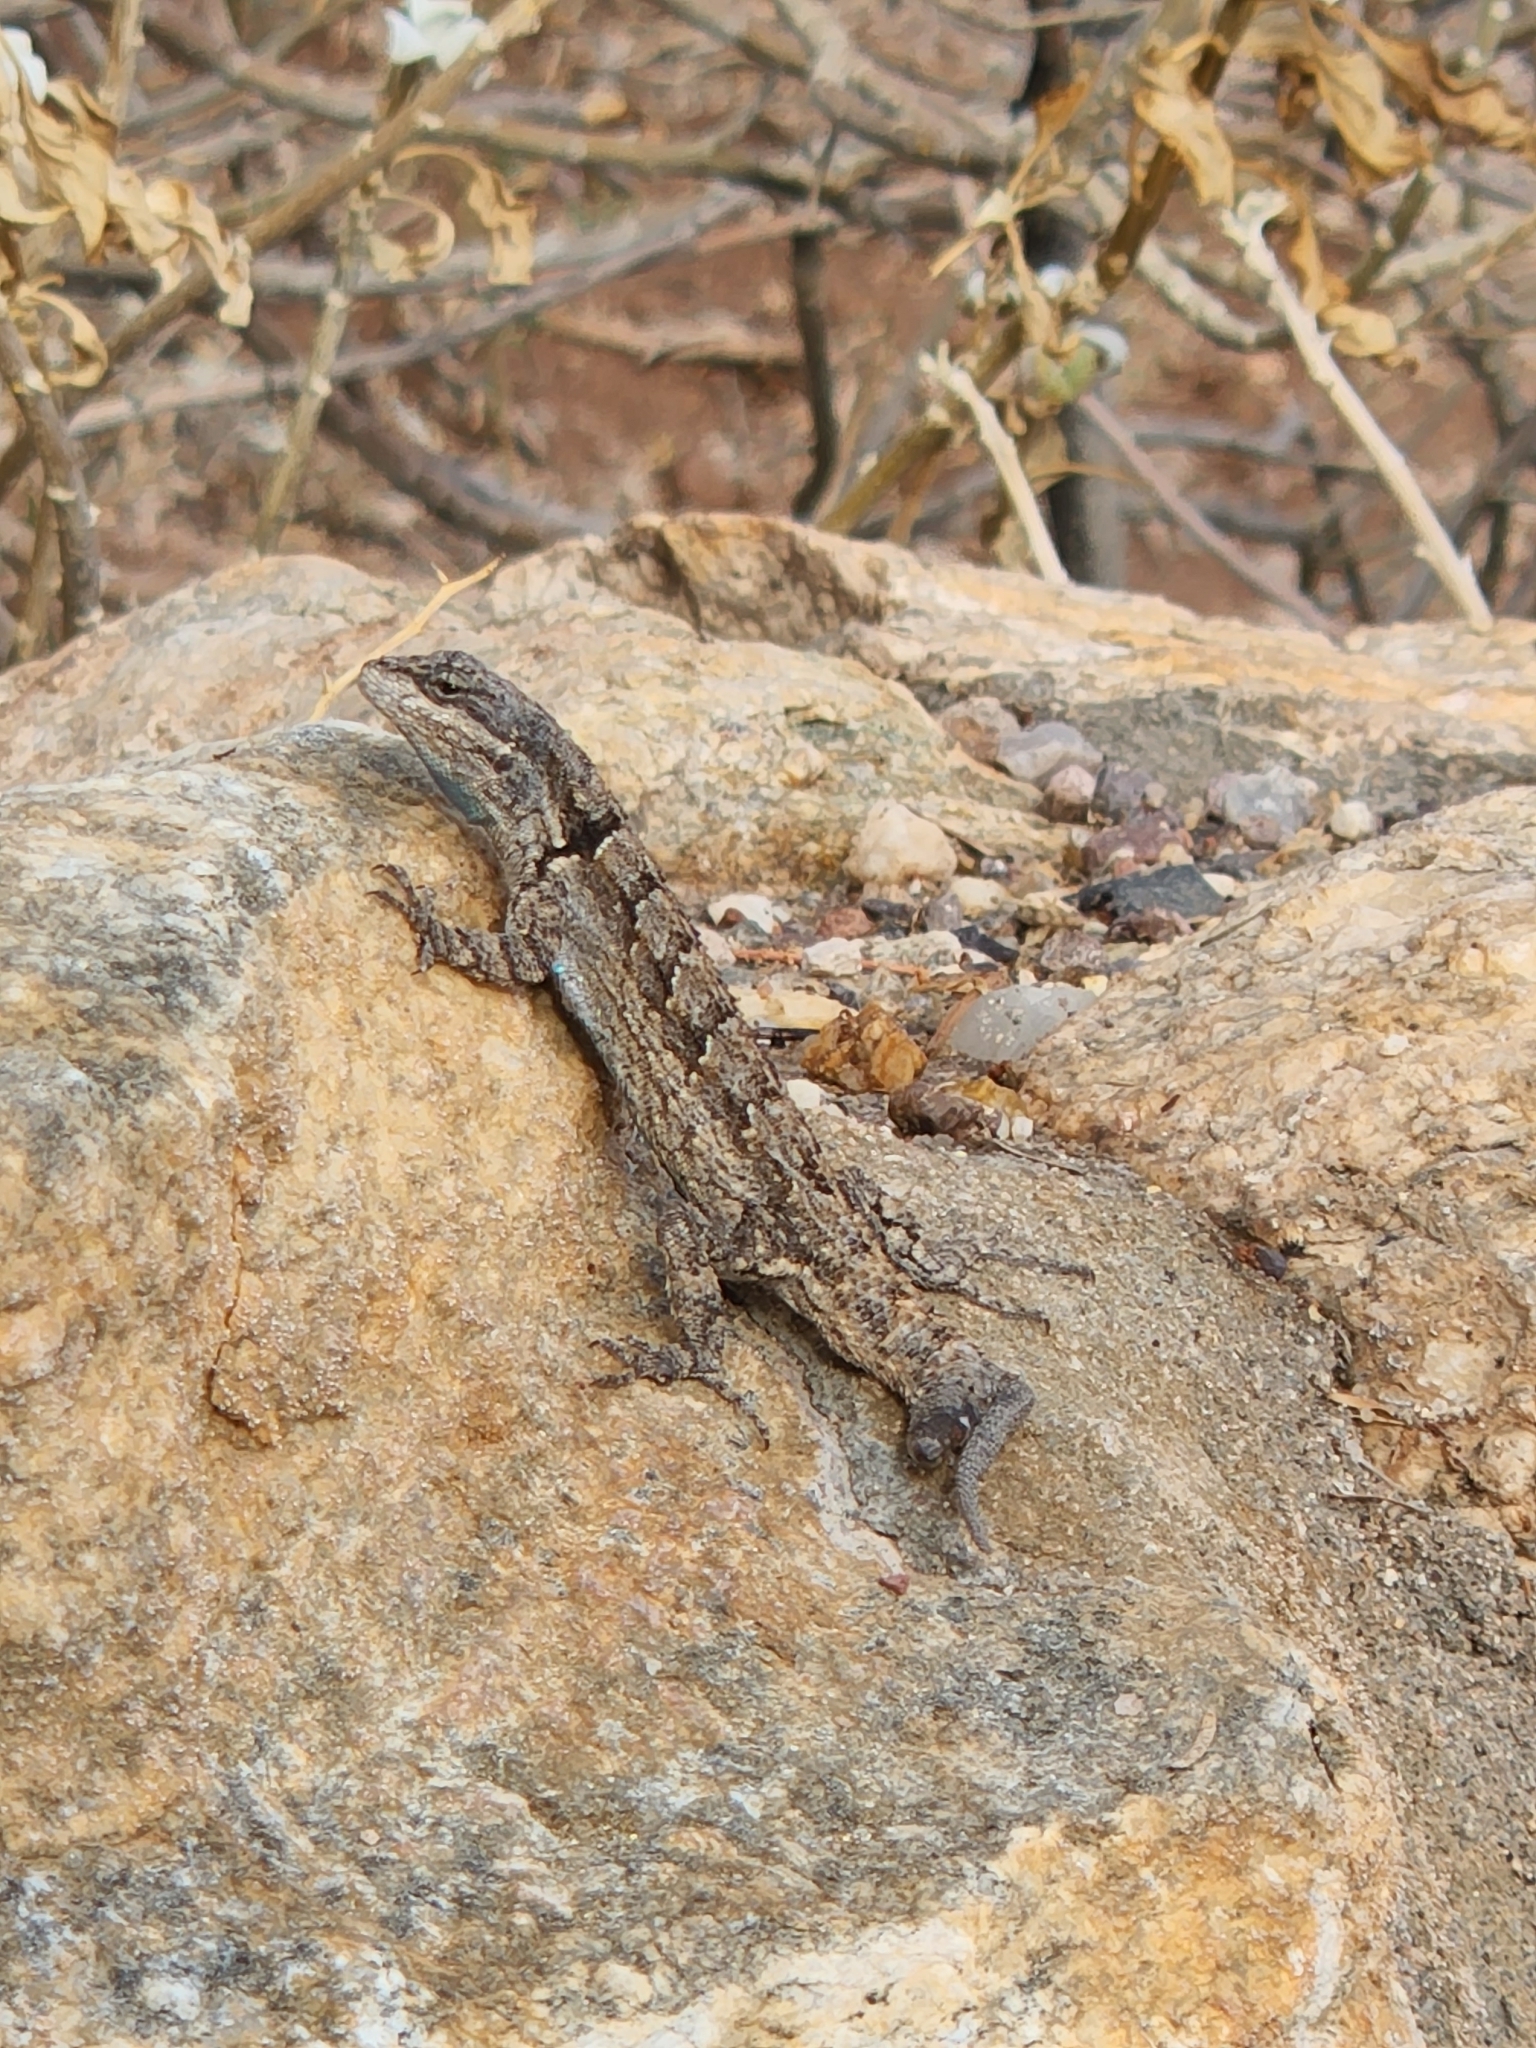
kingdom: Animalia
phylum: Chordata
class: Squamata
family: Phrynosomatidae
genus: Urosaurus
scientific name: Urosaurus ornatus
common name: Ornate tree lizard
